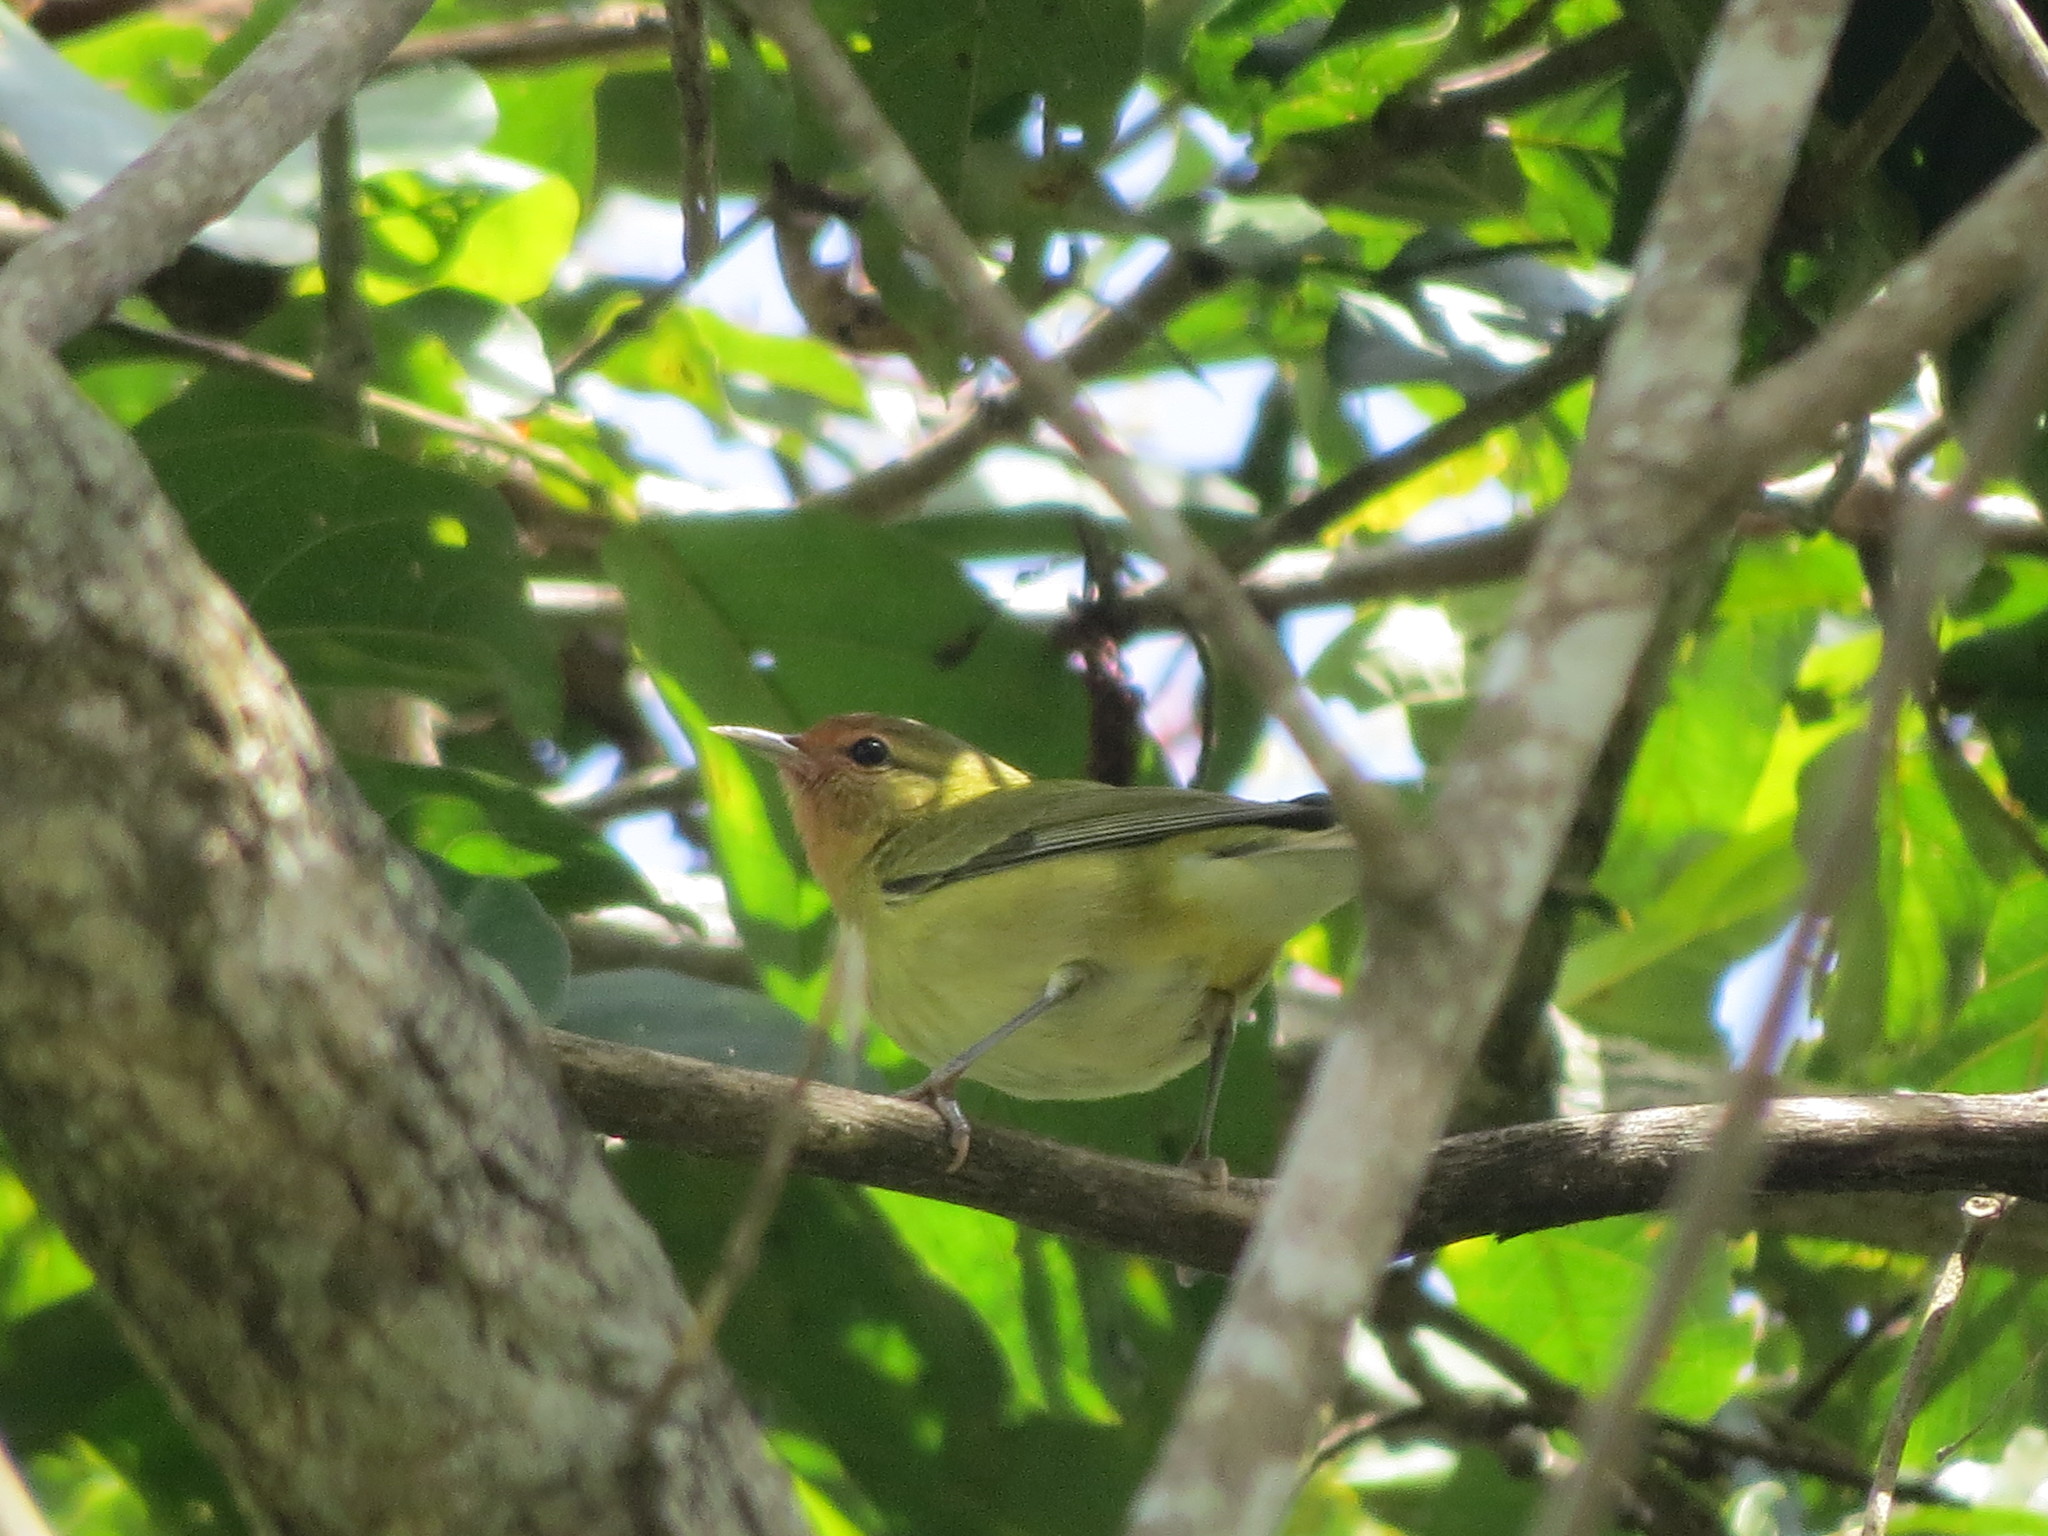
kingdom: Animalia
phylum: Chordata
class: Aves
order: Passeriformes
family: Parulidae
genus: Leiothlypis
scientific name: Leiothlypis peregrina
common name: Tennessee warbler
